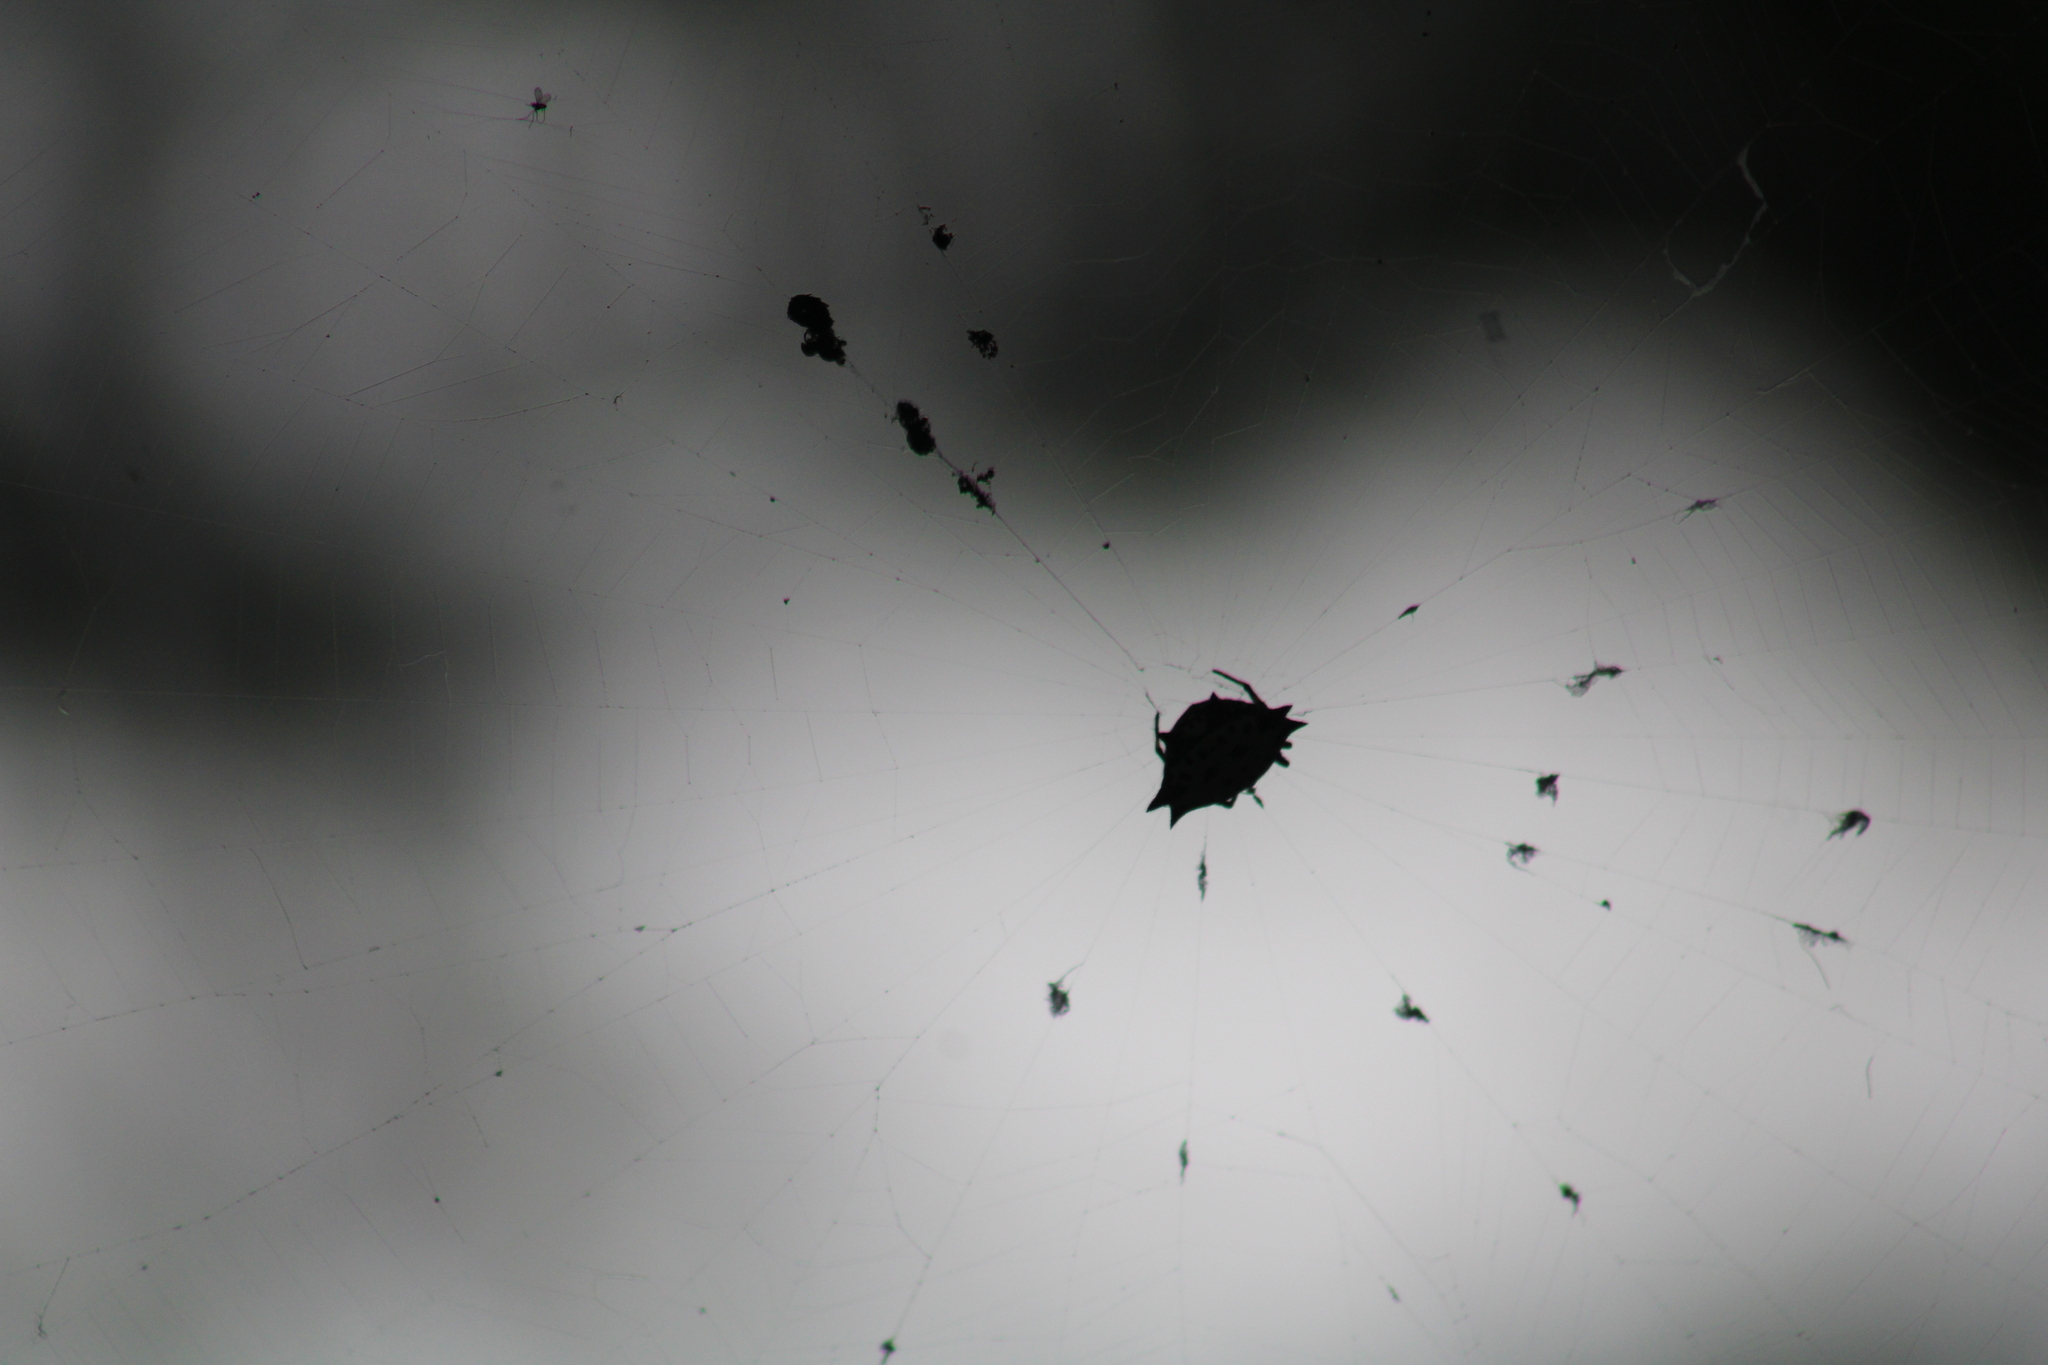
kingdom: Animalia
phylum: Arthropoda
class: Arachnida
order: Araneae
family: Araneidae
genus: Gasteracantha
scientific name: Gasteracantha cancriformis
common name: Orb weavers
